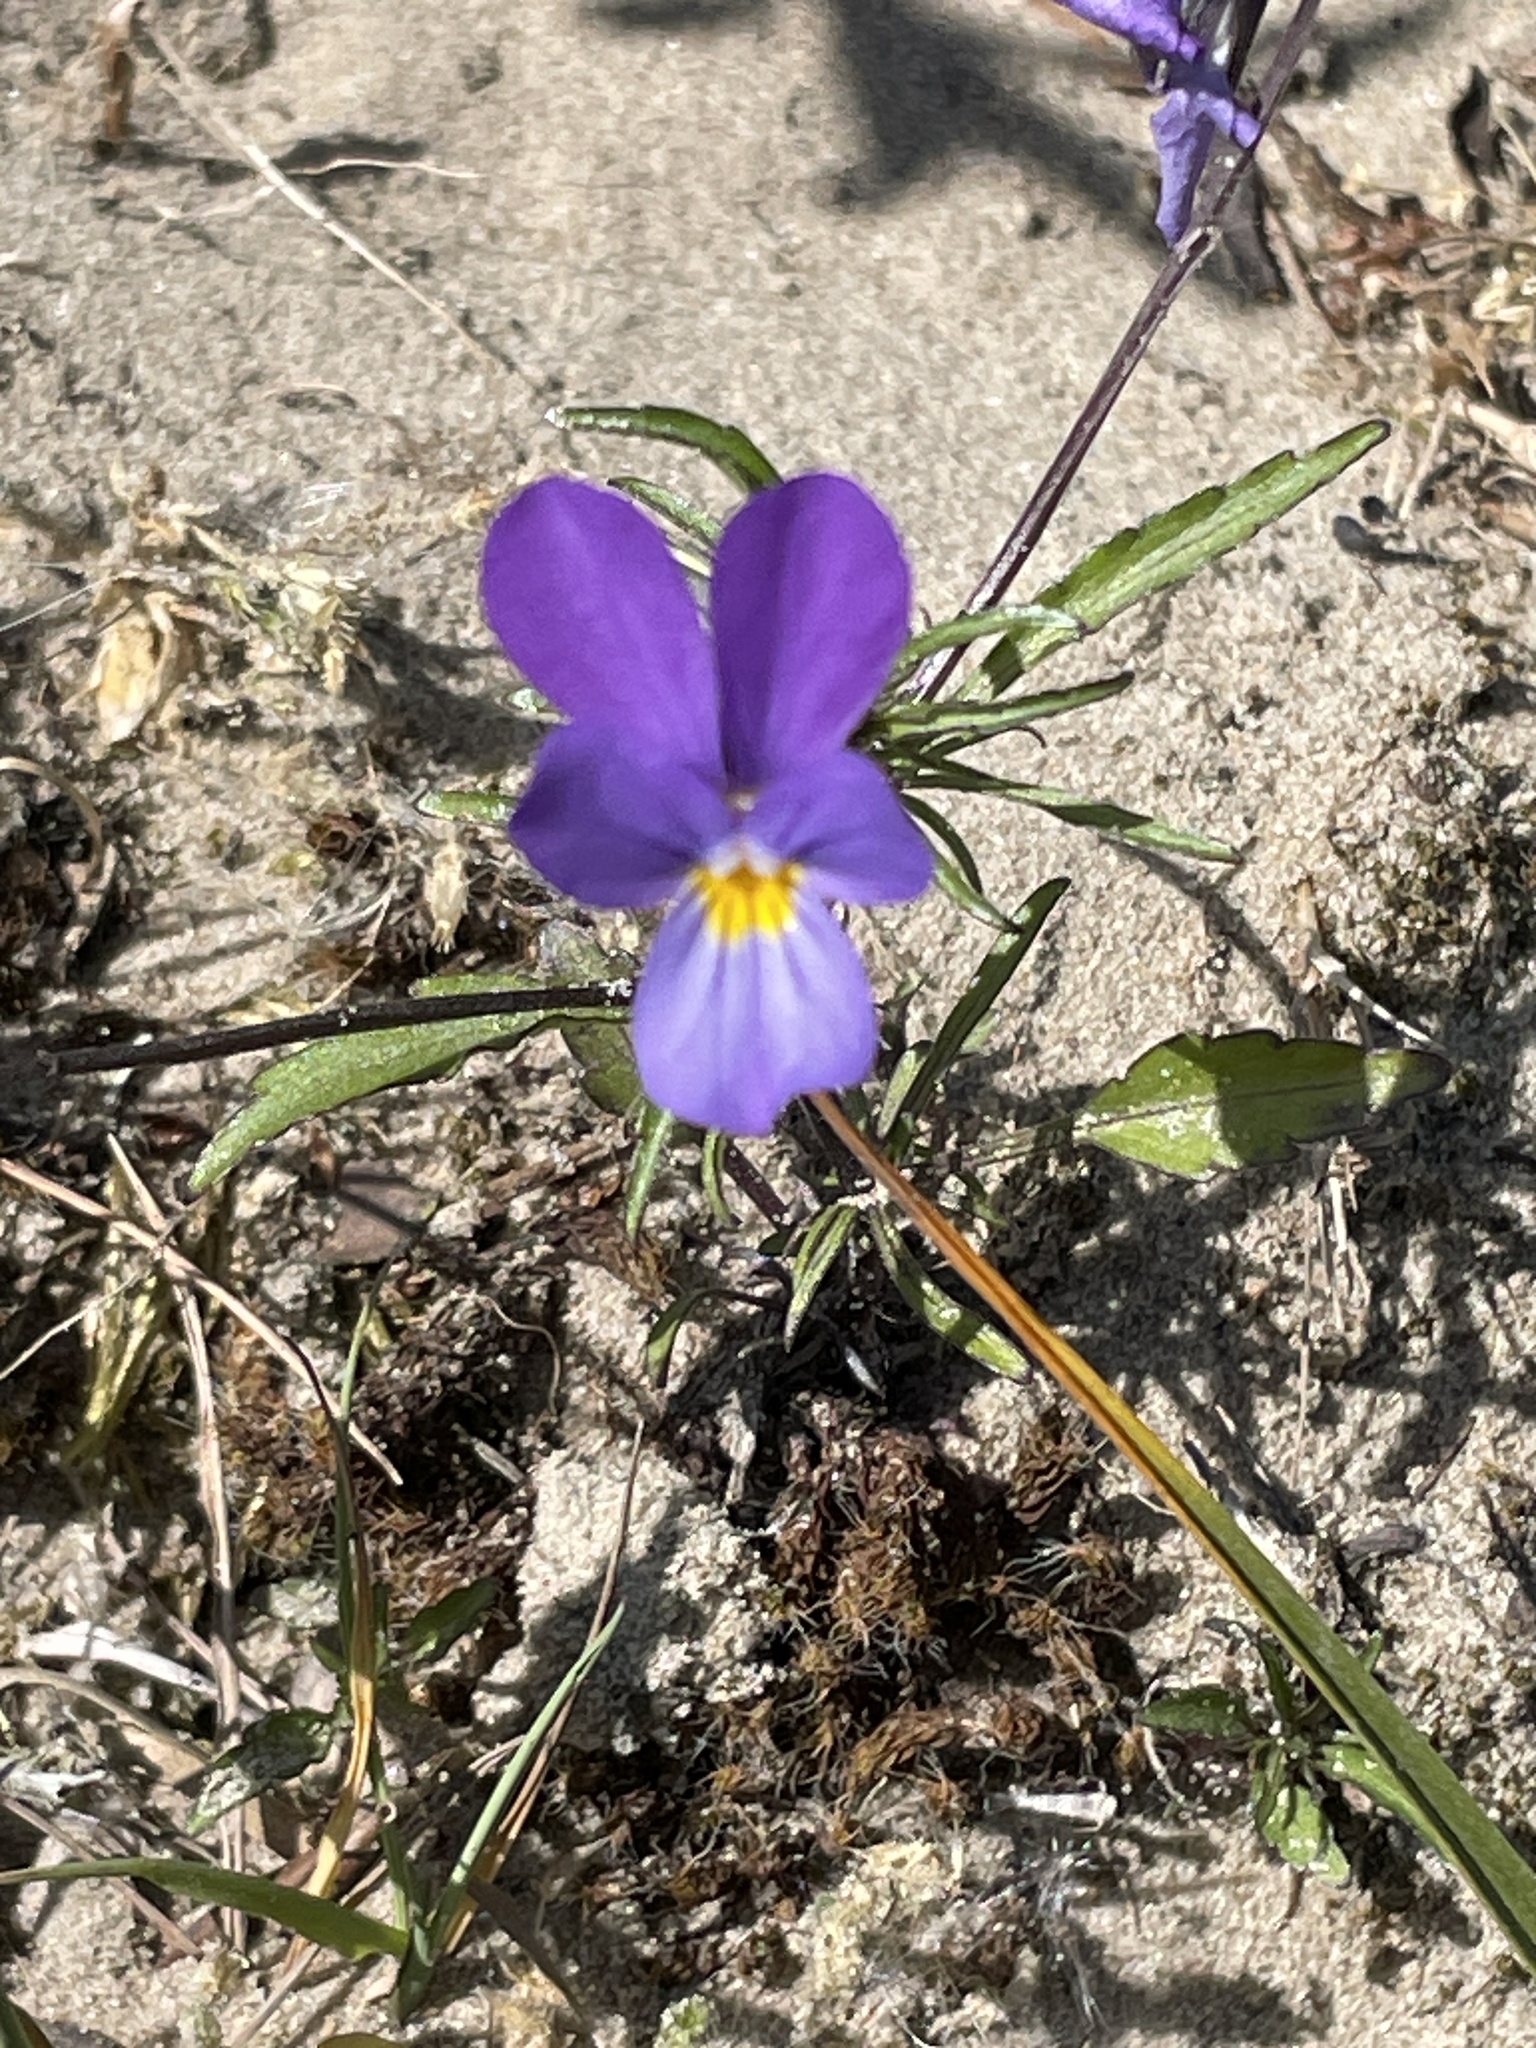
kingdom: Plantae
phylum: Tracheophyta
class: Magnoliopsida
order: Malpighiales
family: Violaceae
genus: Viola
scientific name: Viola tricolor
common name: Pansy
